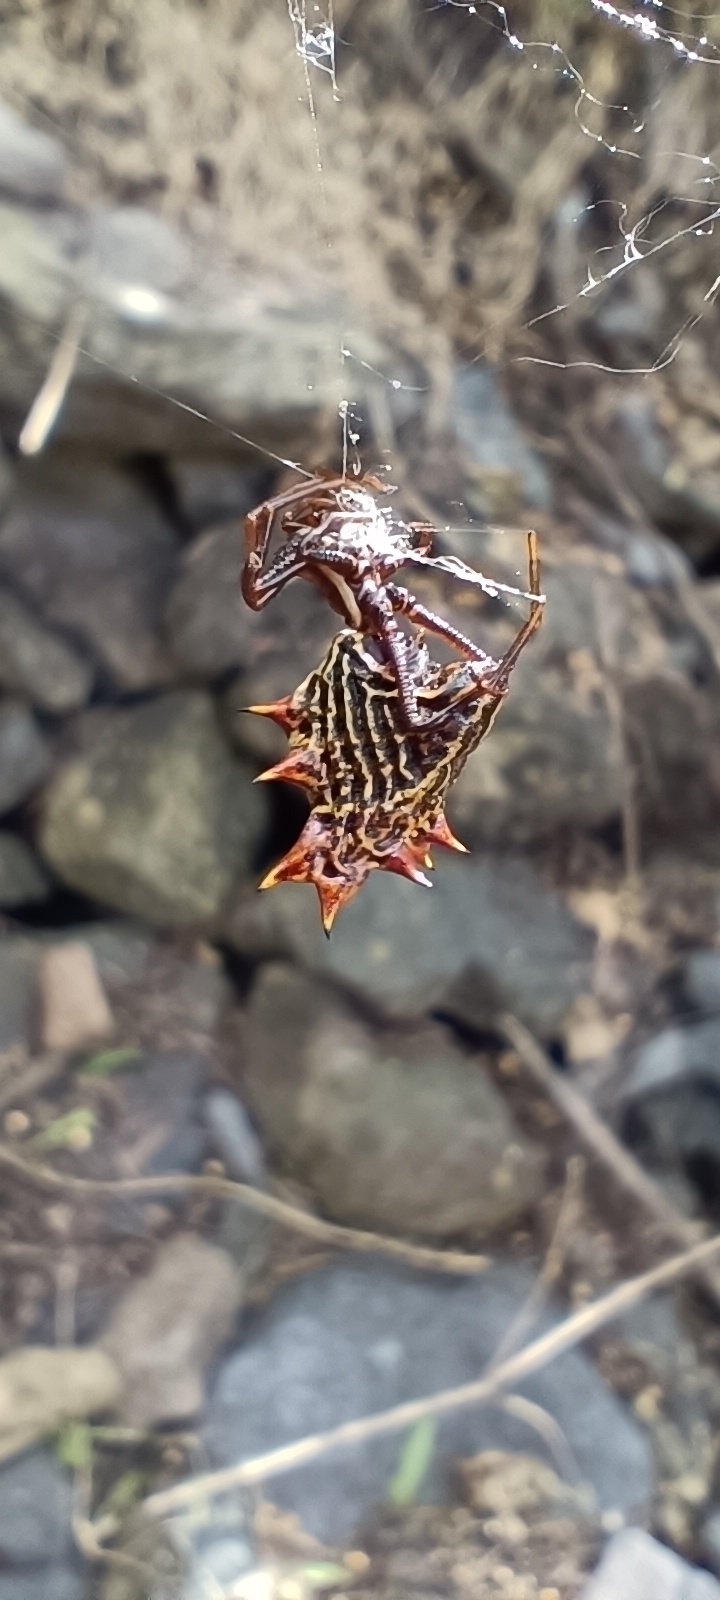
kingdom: Animalia
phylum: Arthropoda
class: Arachnida
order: Araneae
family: Araneidae
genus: Micrathena
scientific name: Micrathena gracilis
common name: Orb weavers
